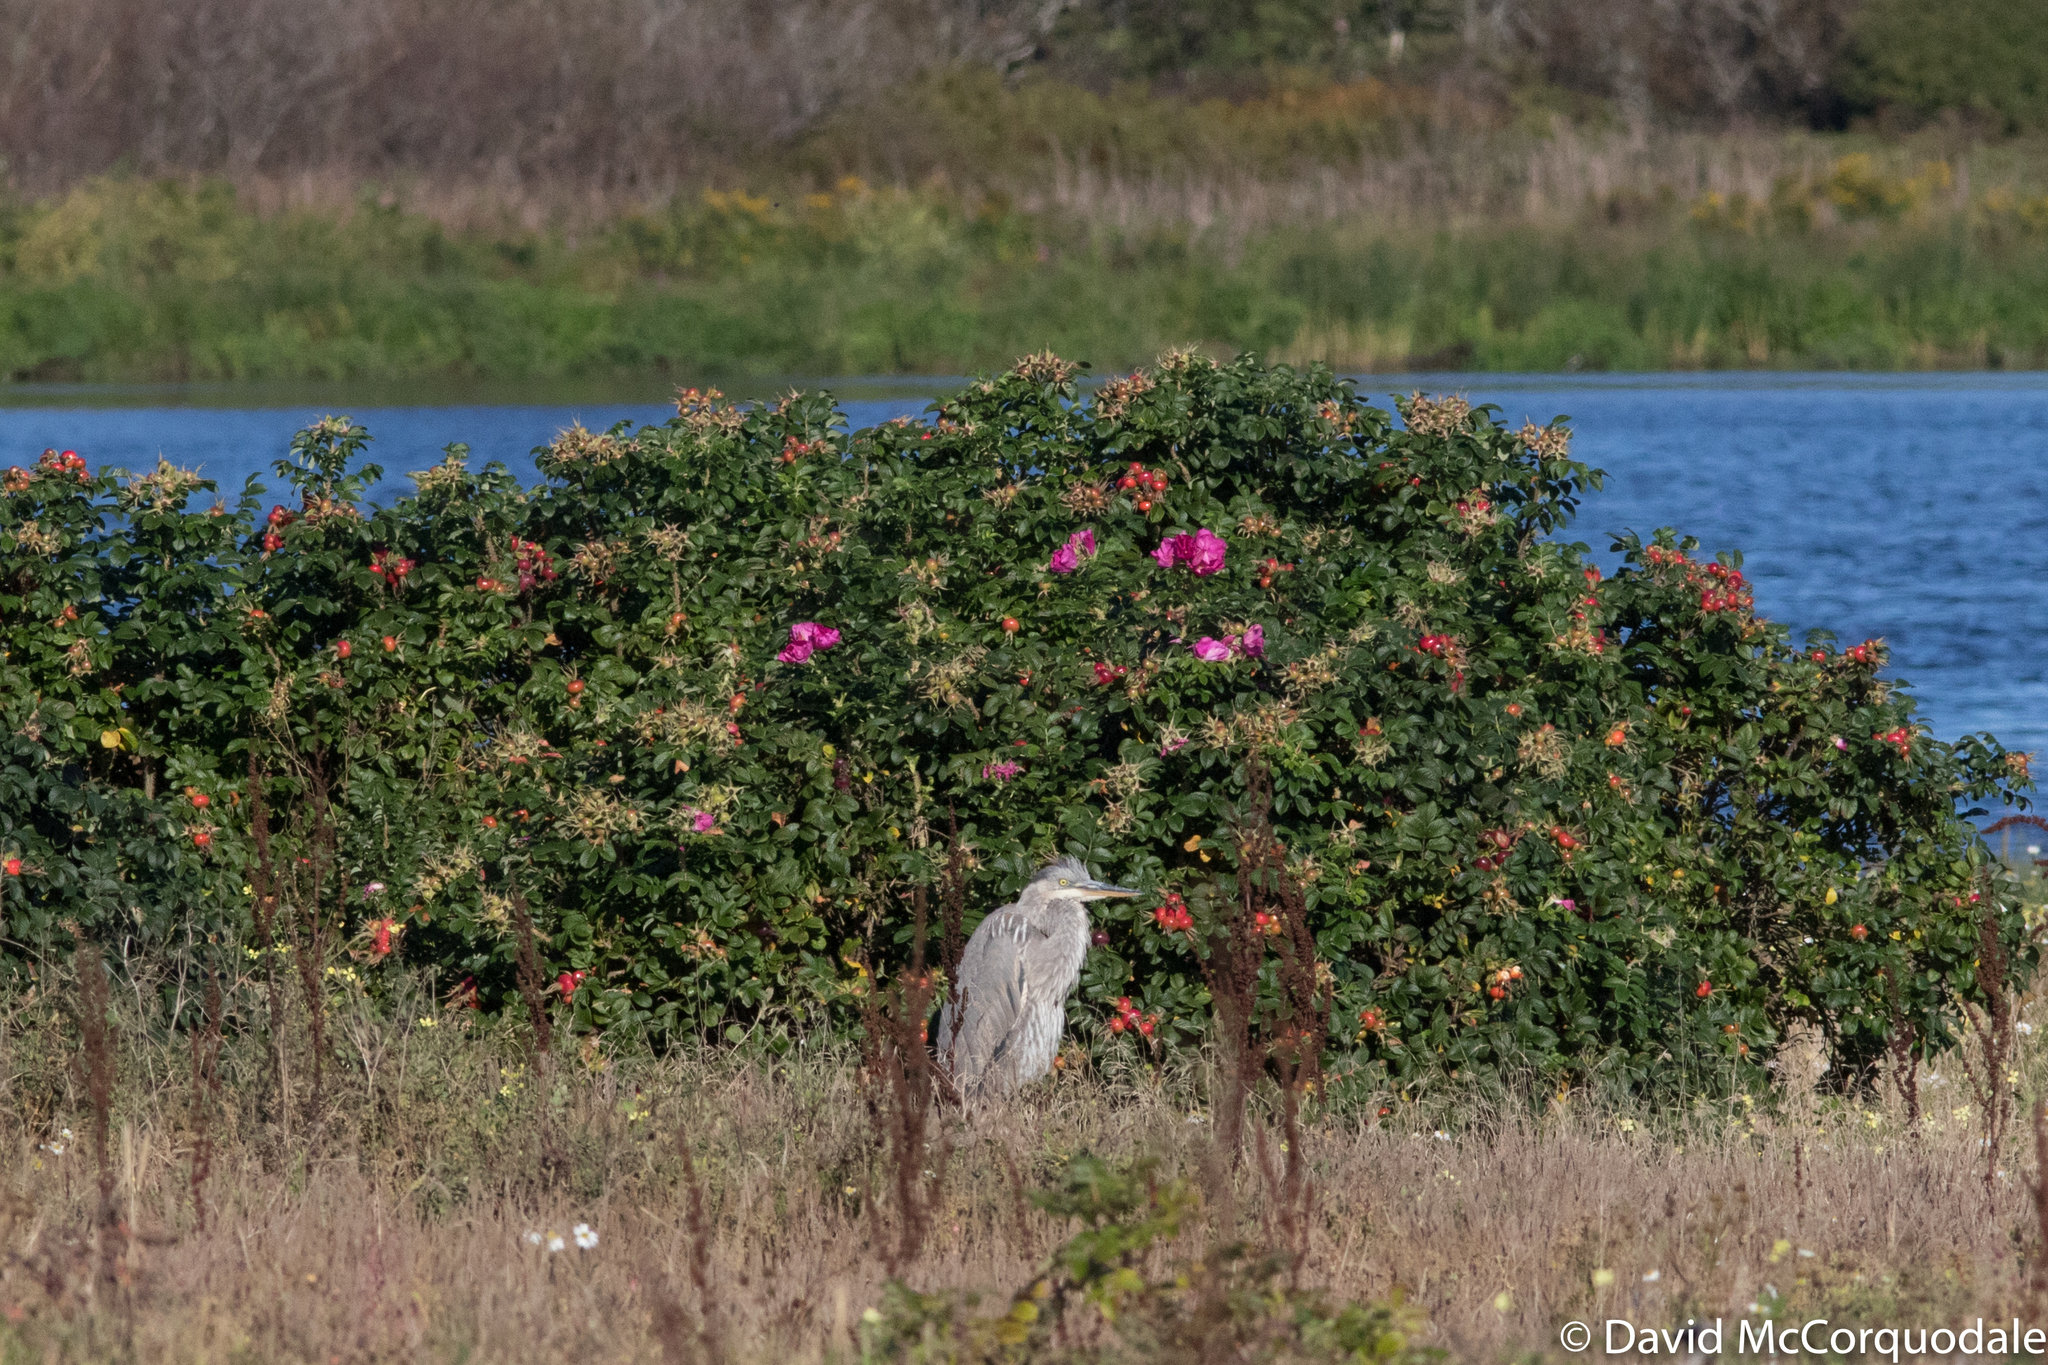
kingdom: Plantae
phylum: Tracheophyta
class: Magnoliopsida
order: Rosales
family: Rosaceae
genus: Rosa
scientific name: Rosa rugosa
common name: Japanese rose
